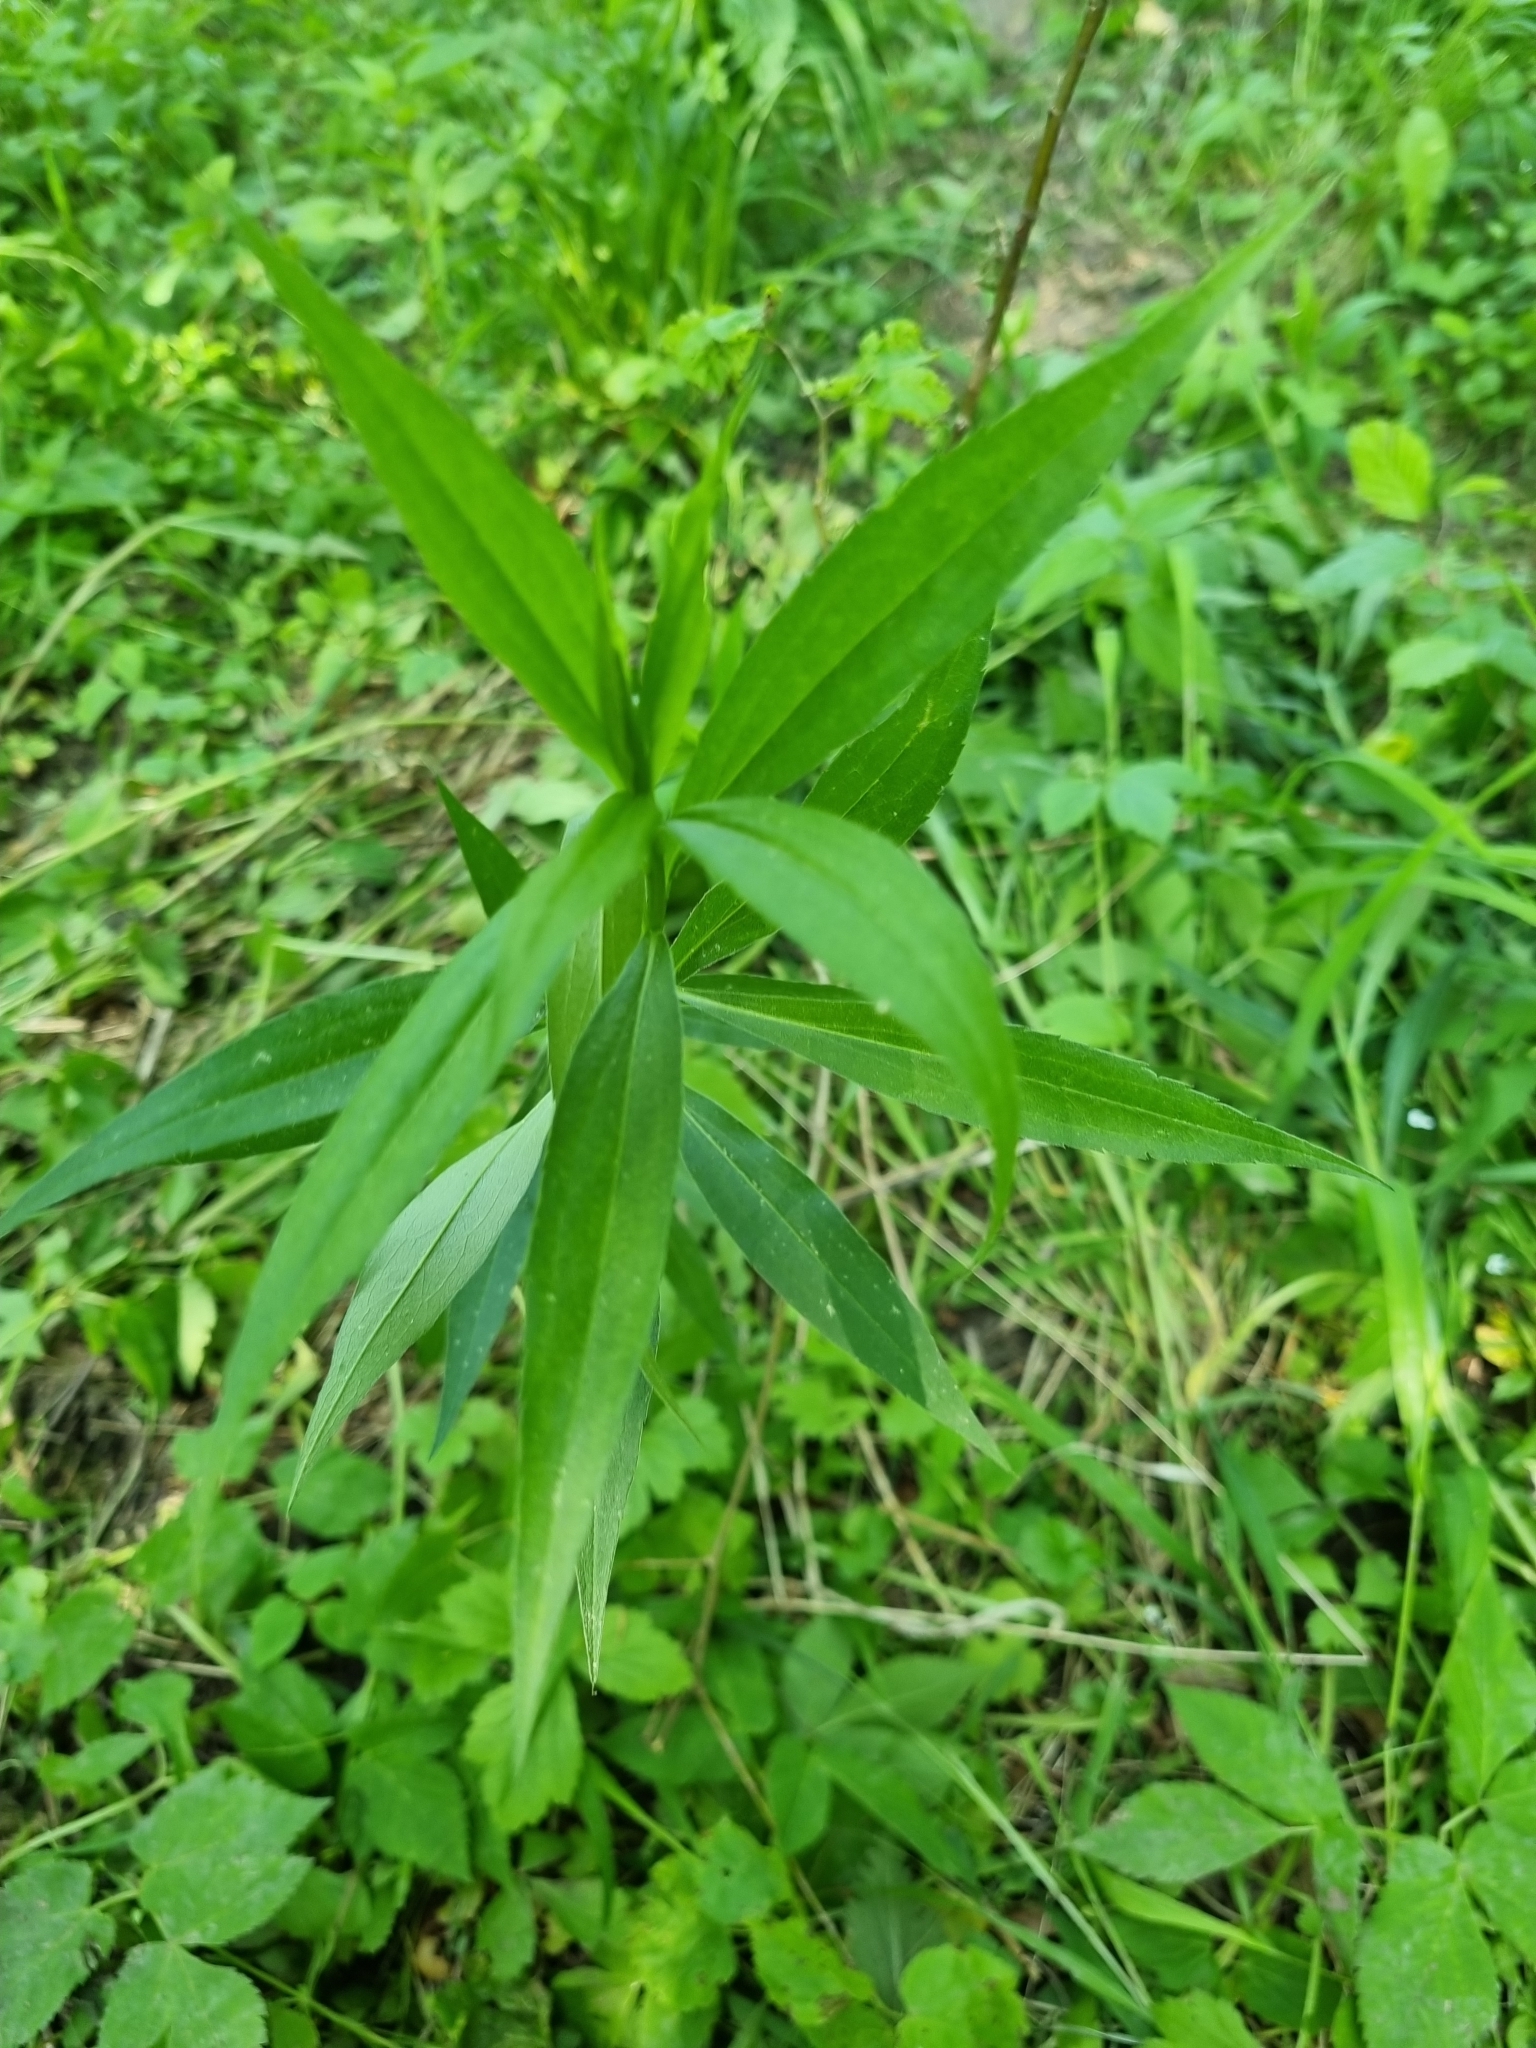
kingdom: Plantae
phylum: Tracheophyta
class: Magnoliopsida
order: Asterales
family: Asteraceae
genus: Solidago
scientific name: Solidago gigantea
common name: Giant goldenrod
